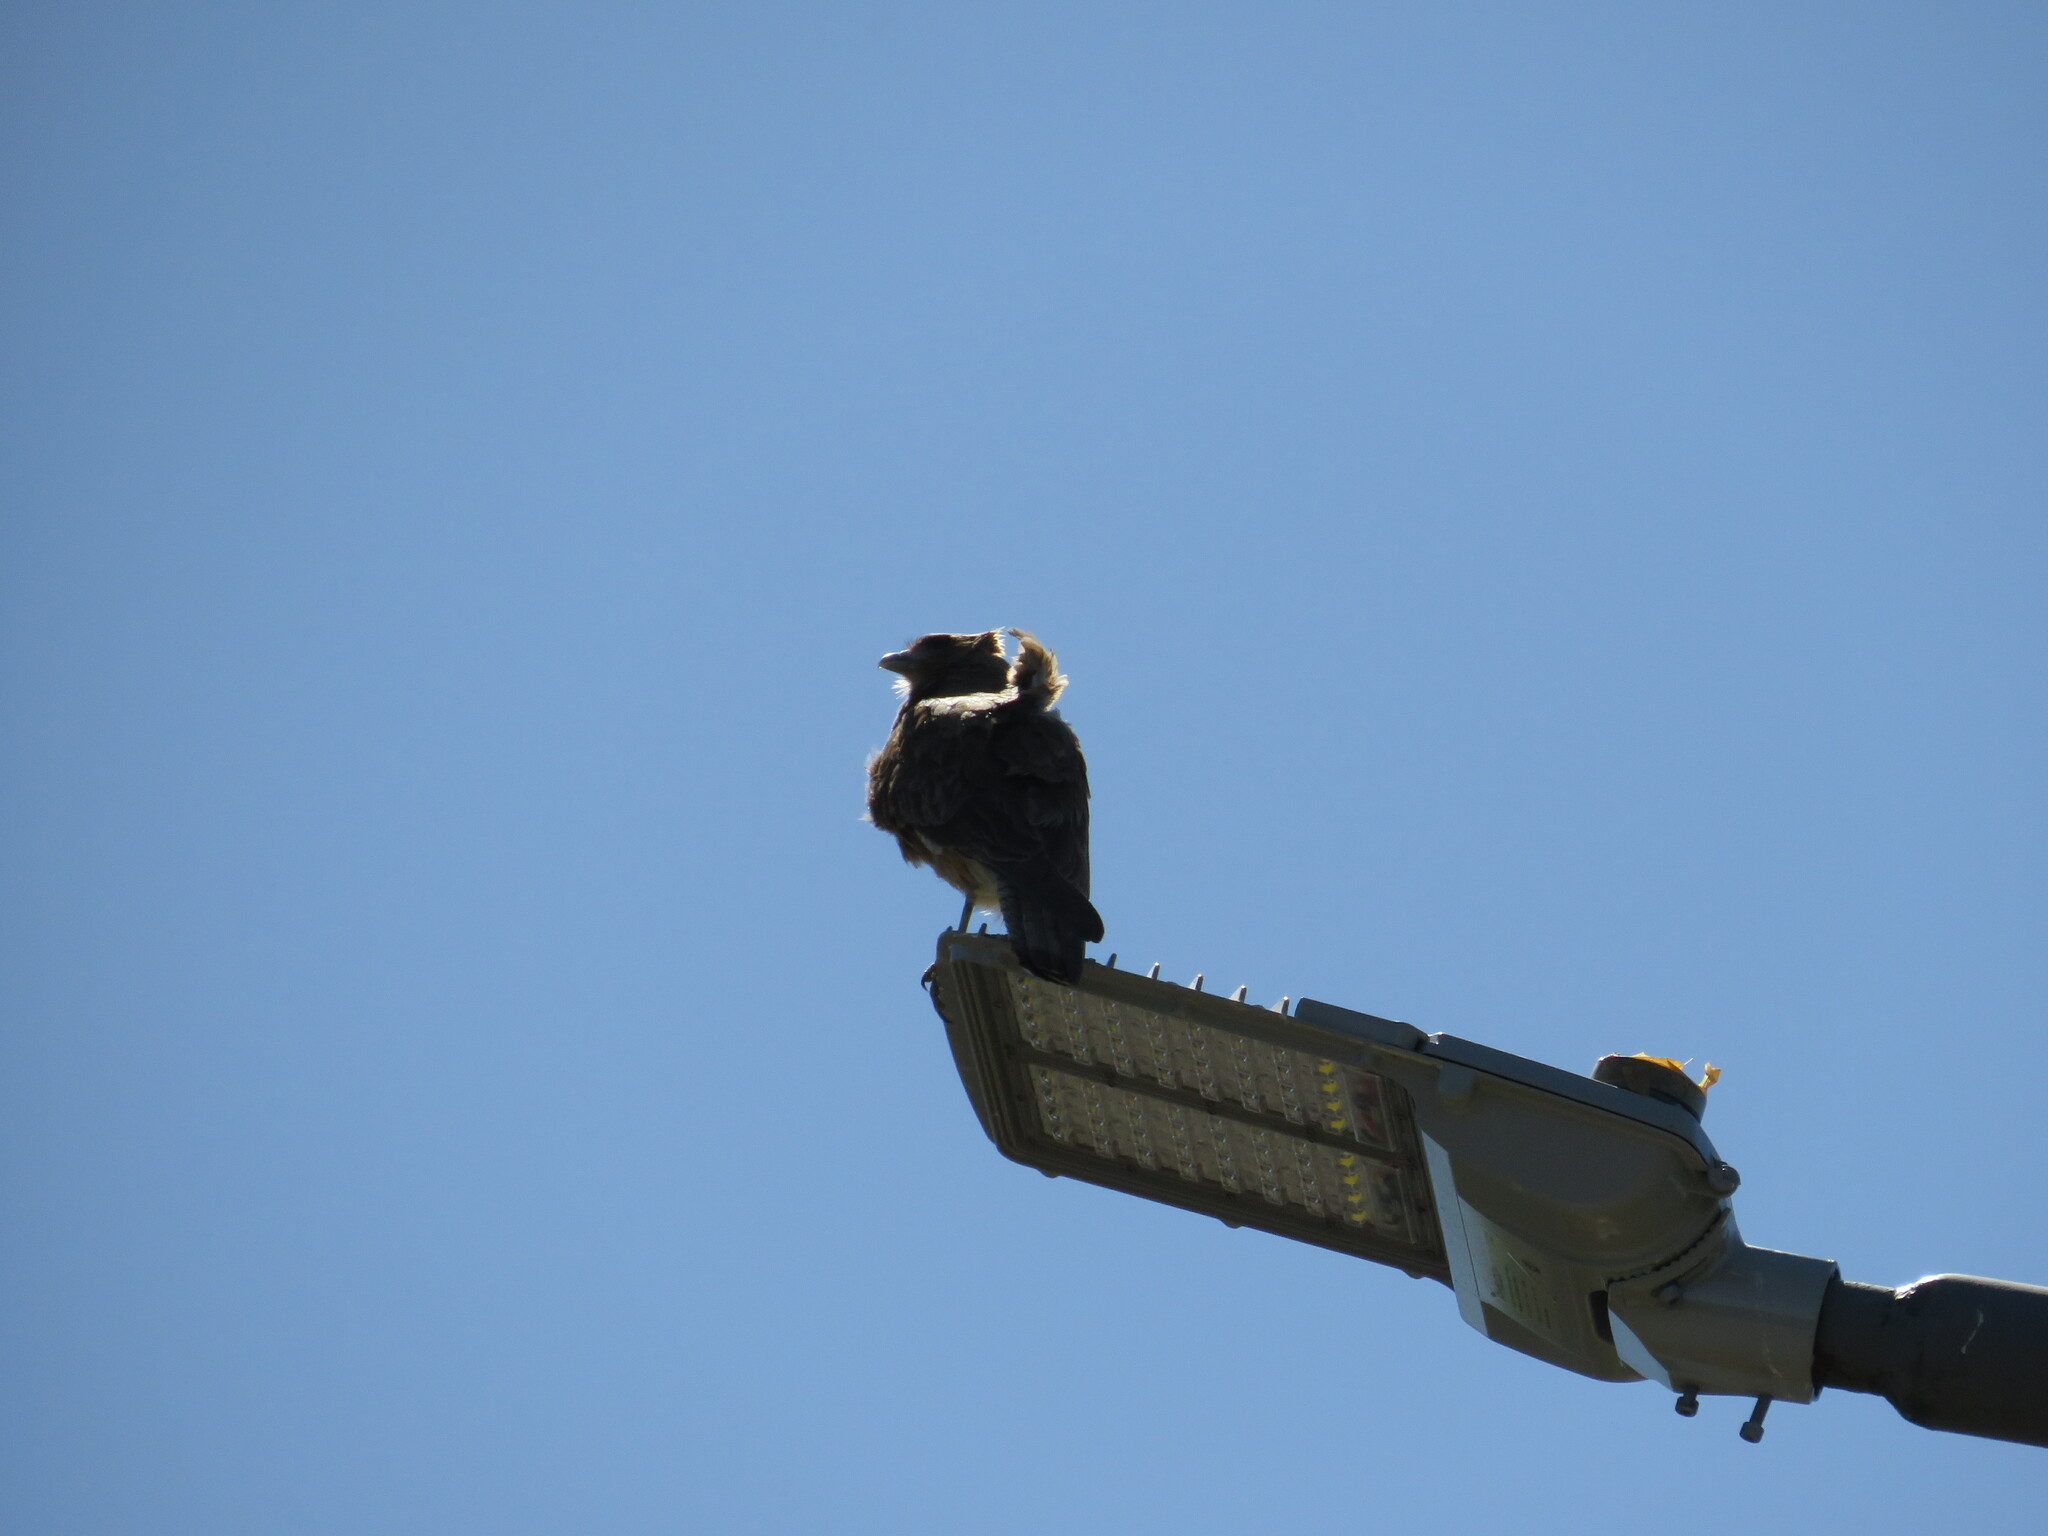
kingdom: Animalia
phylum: Chordata
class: Aves
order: Falconiformes
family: Falconidae
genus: Daptrius
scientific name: Daptrius
